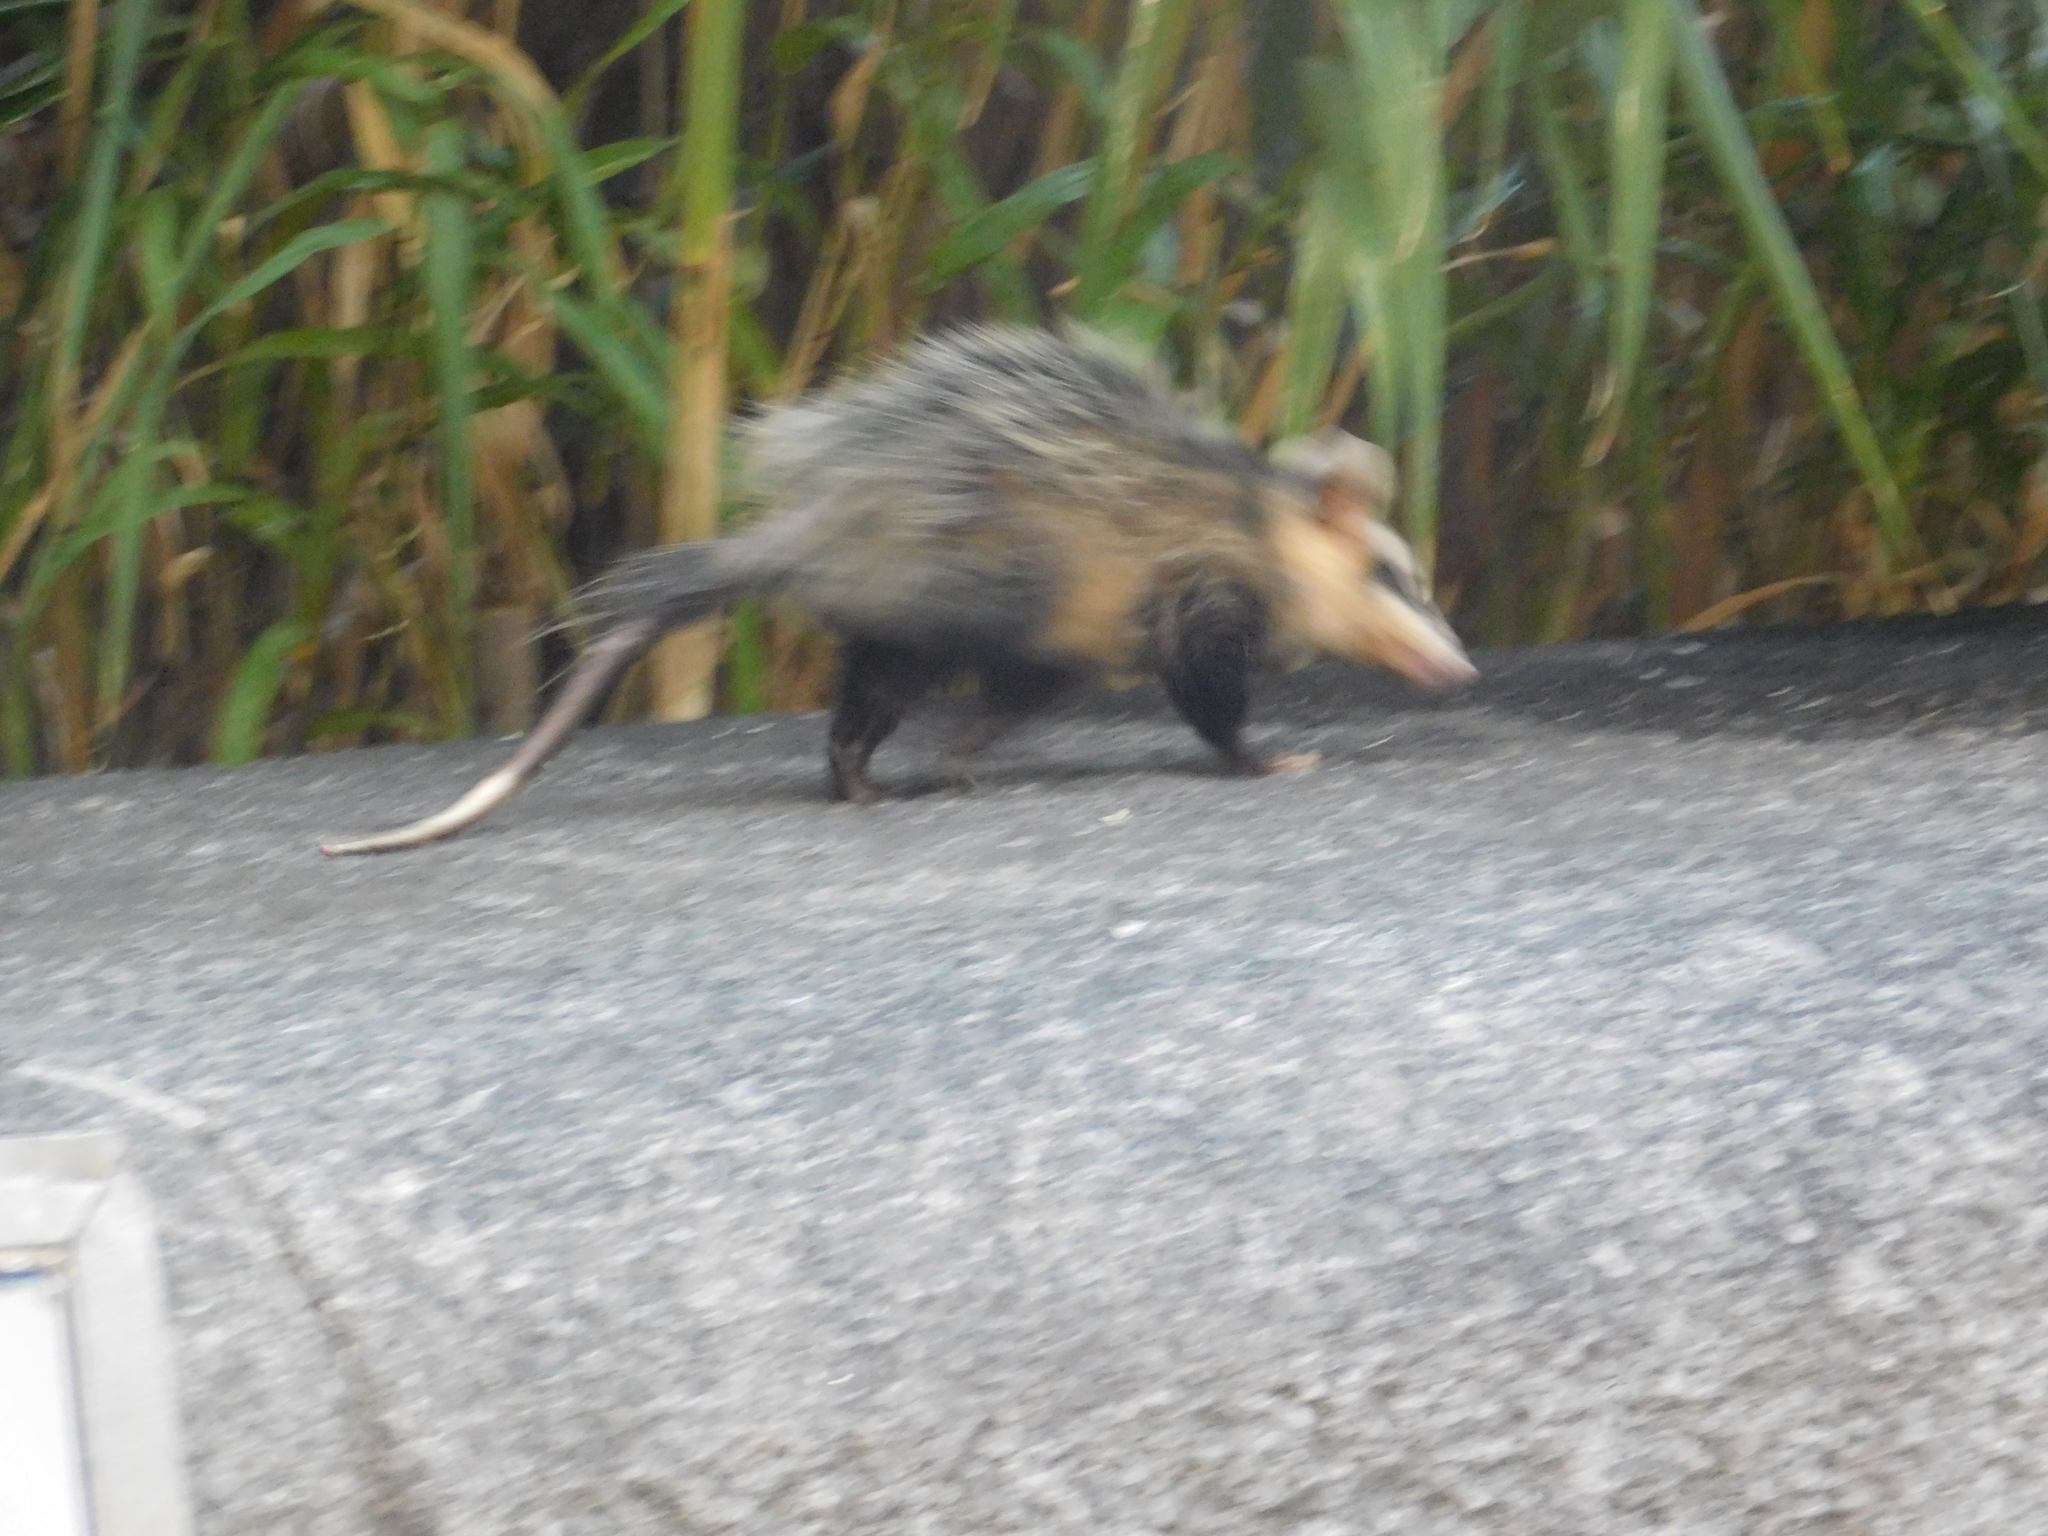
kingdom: Animalia
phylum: Chordata
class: Mammalia
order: Didelphimorphia
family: Didelphidae
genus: Didelphis
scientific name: Didelphis albiventris
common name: White-eared opossum
